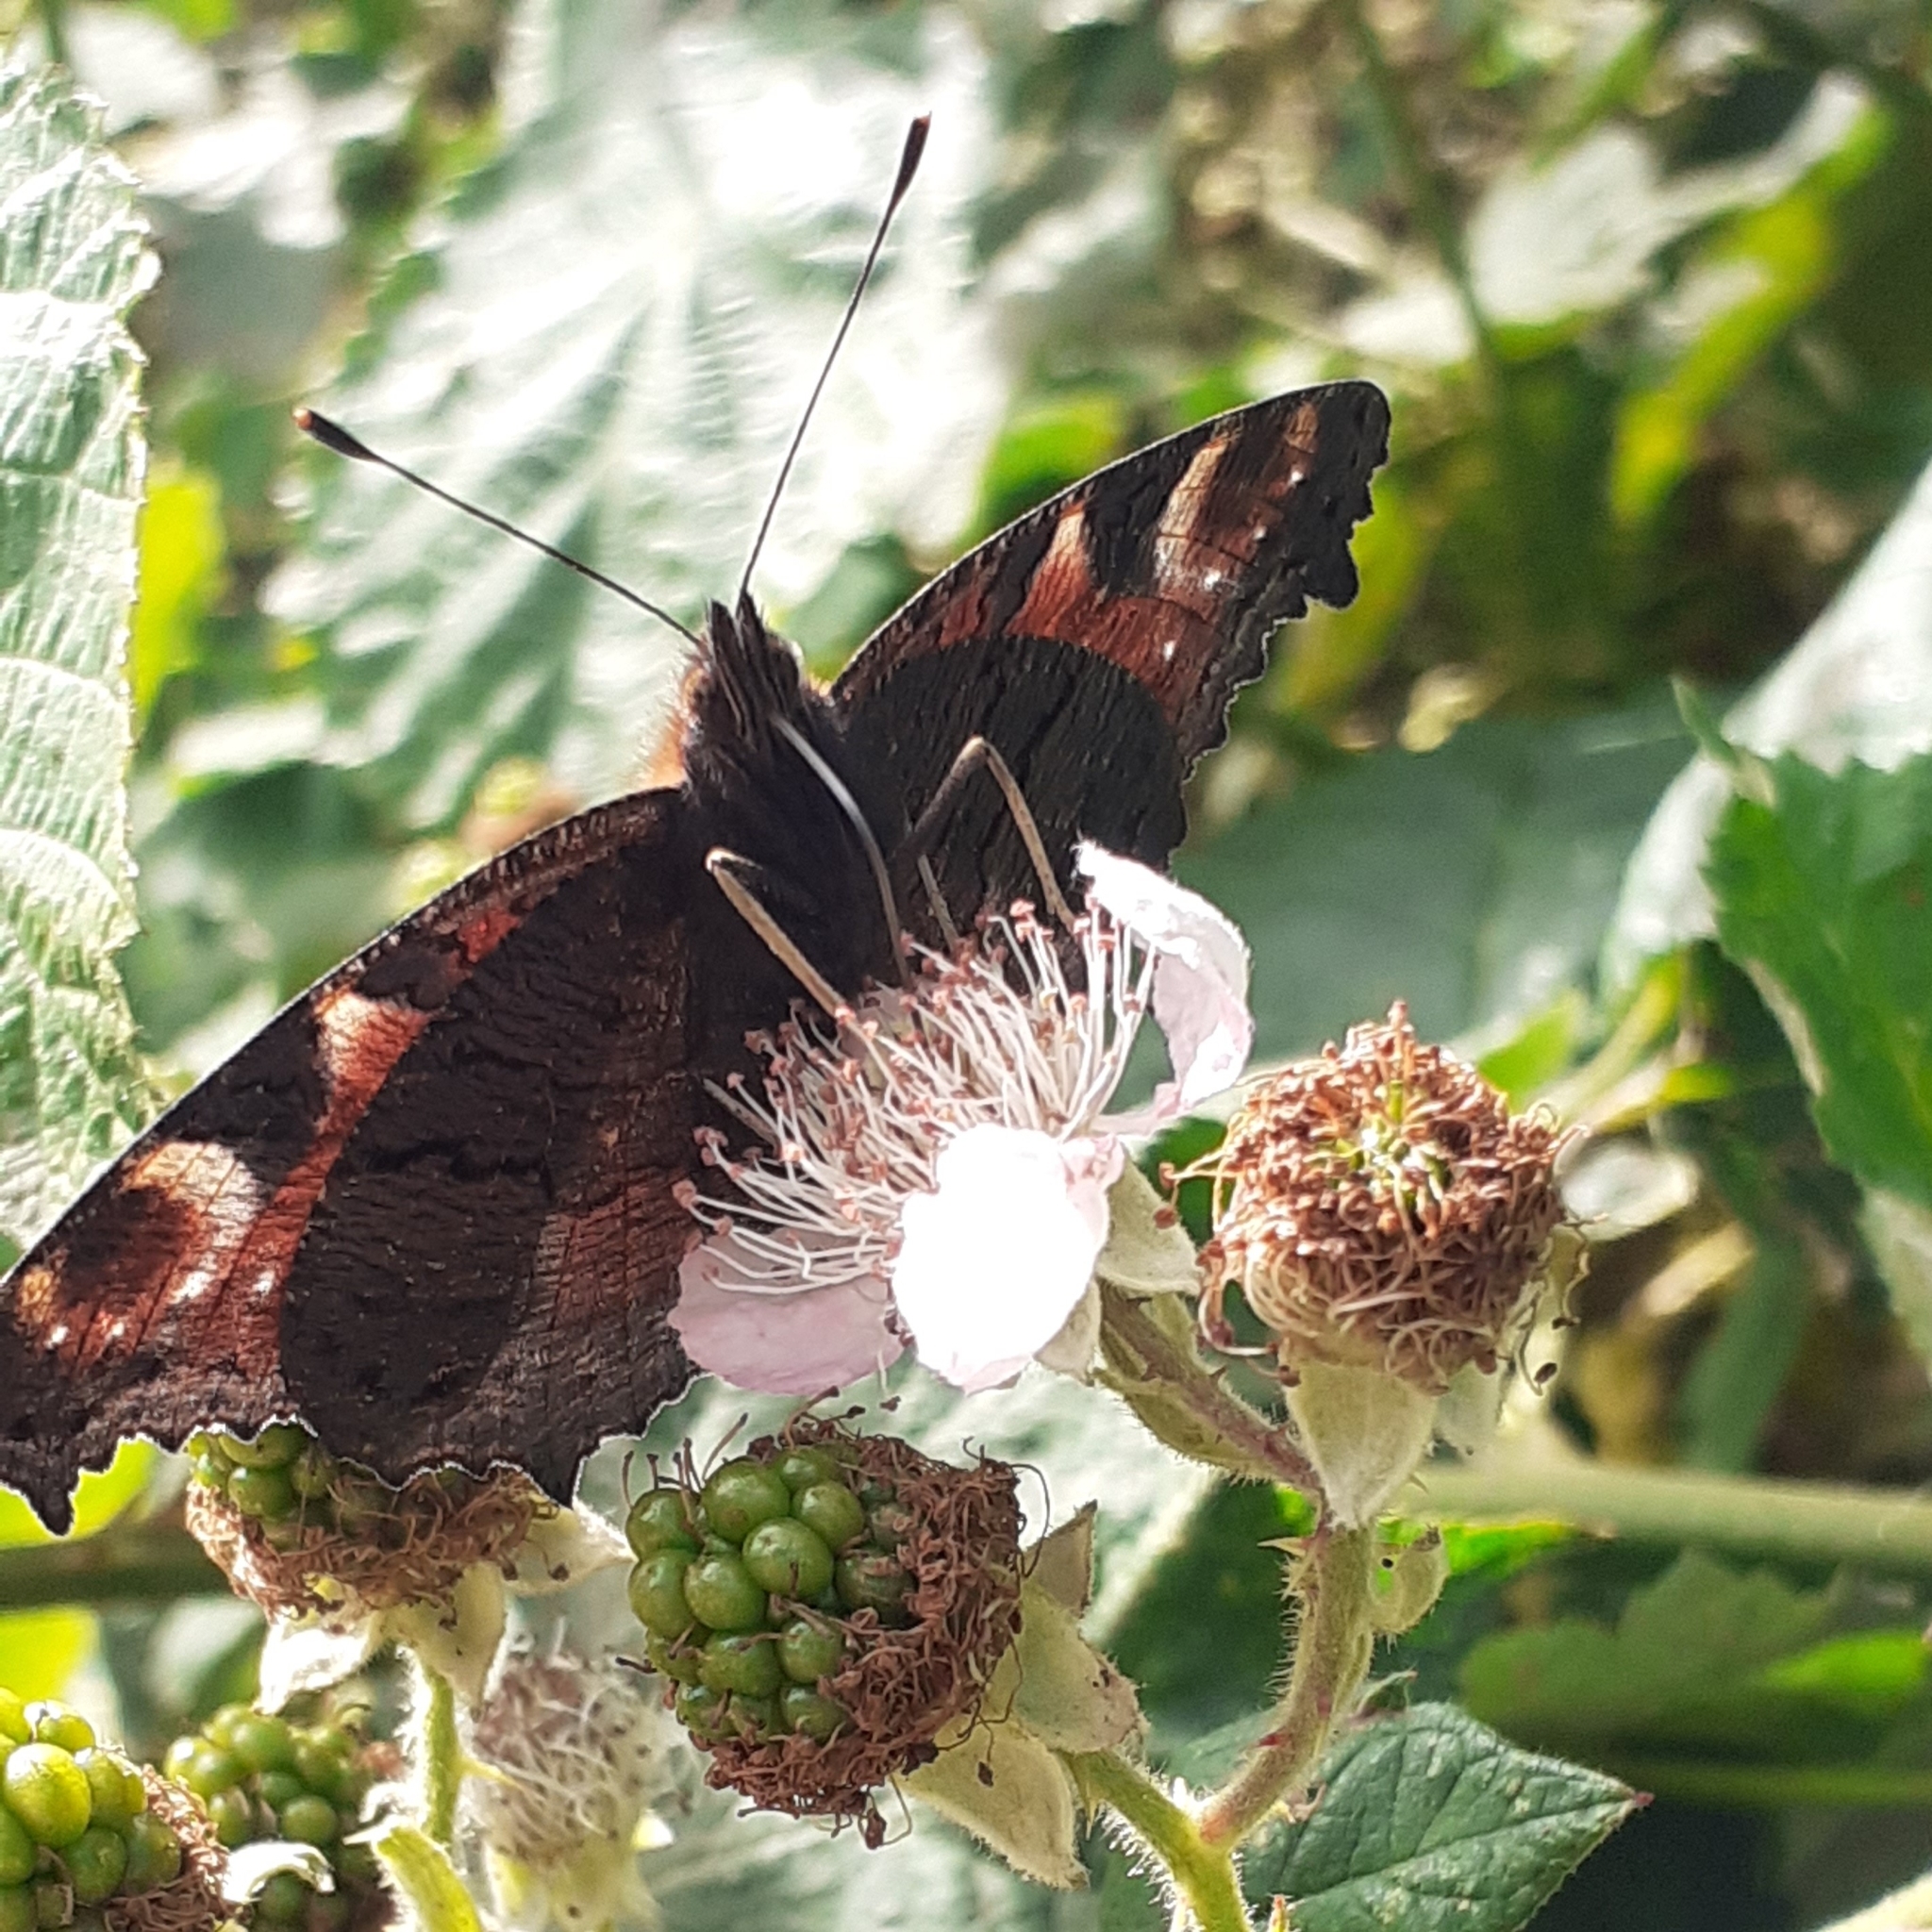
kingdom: Animalia
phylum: Arthropoda
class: Insecta
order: Lepidoptera
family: Nymphalidae
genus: Aglais
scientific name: Aglais io
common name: Peacock
